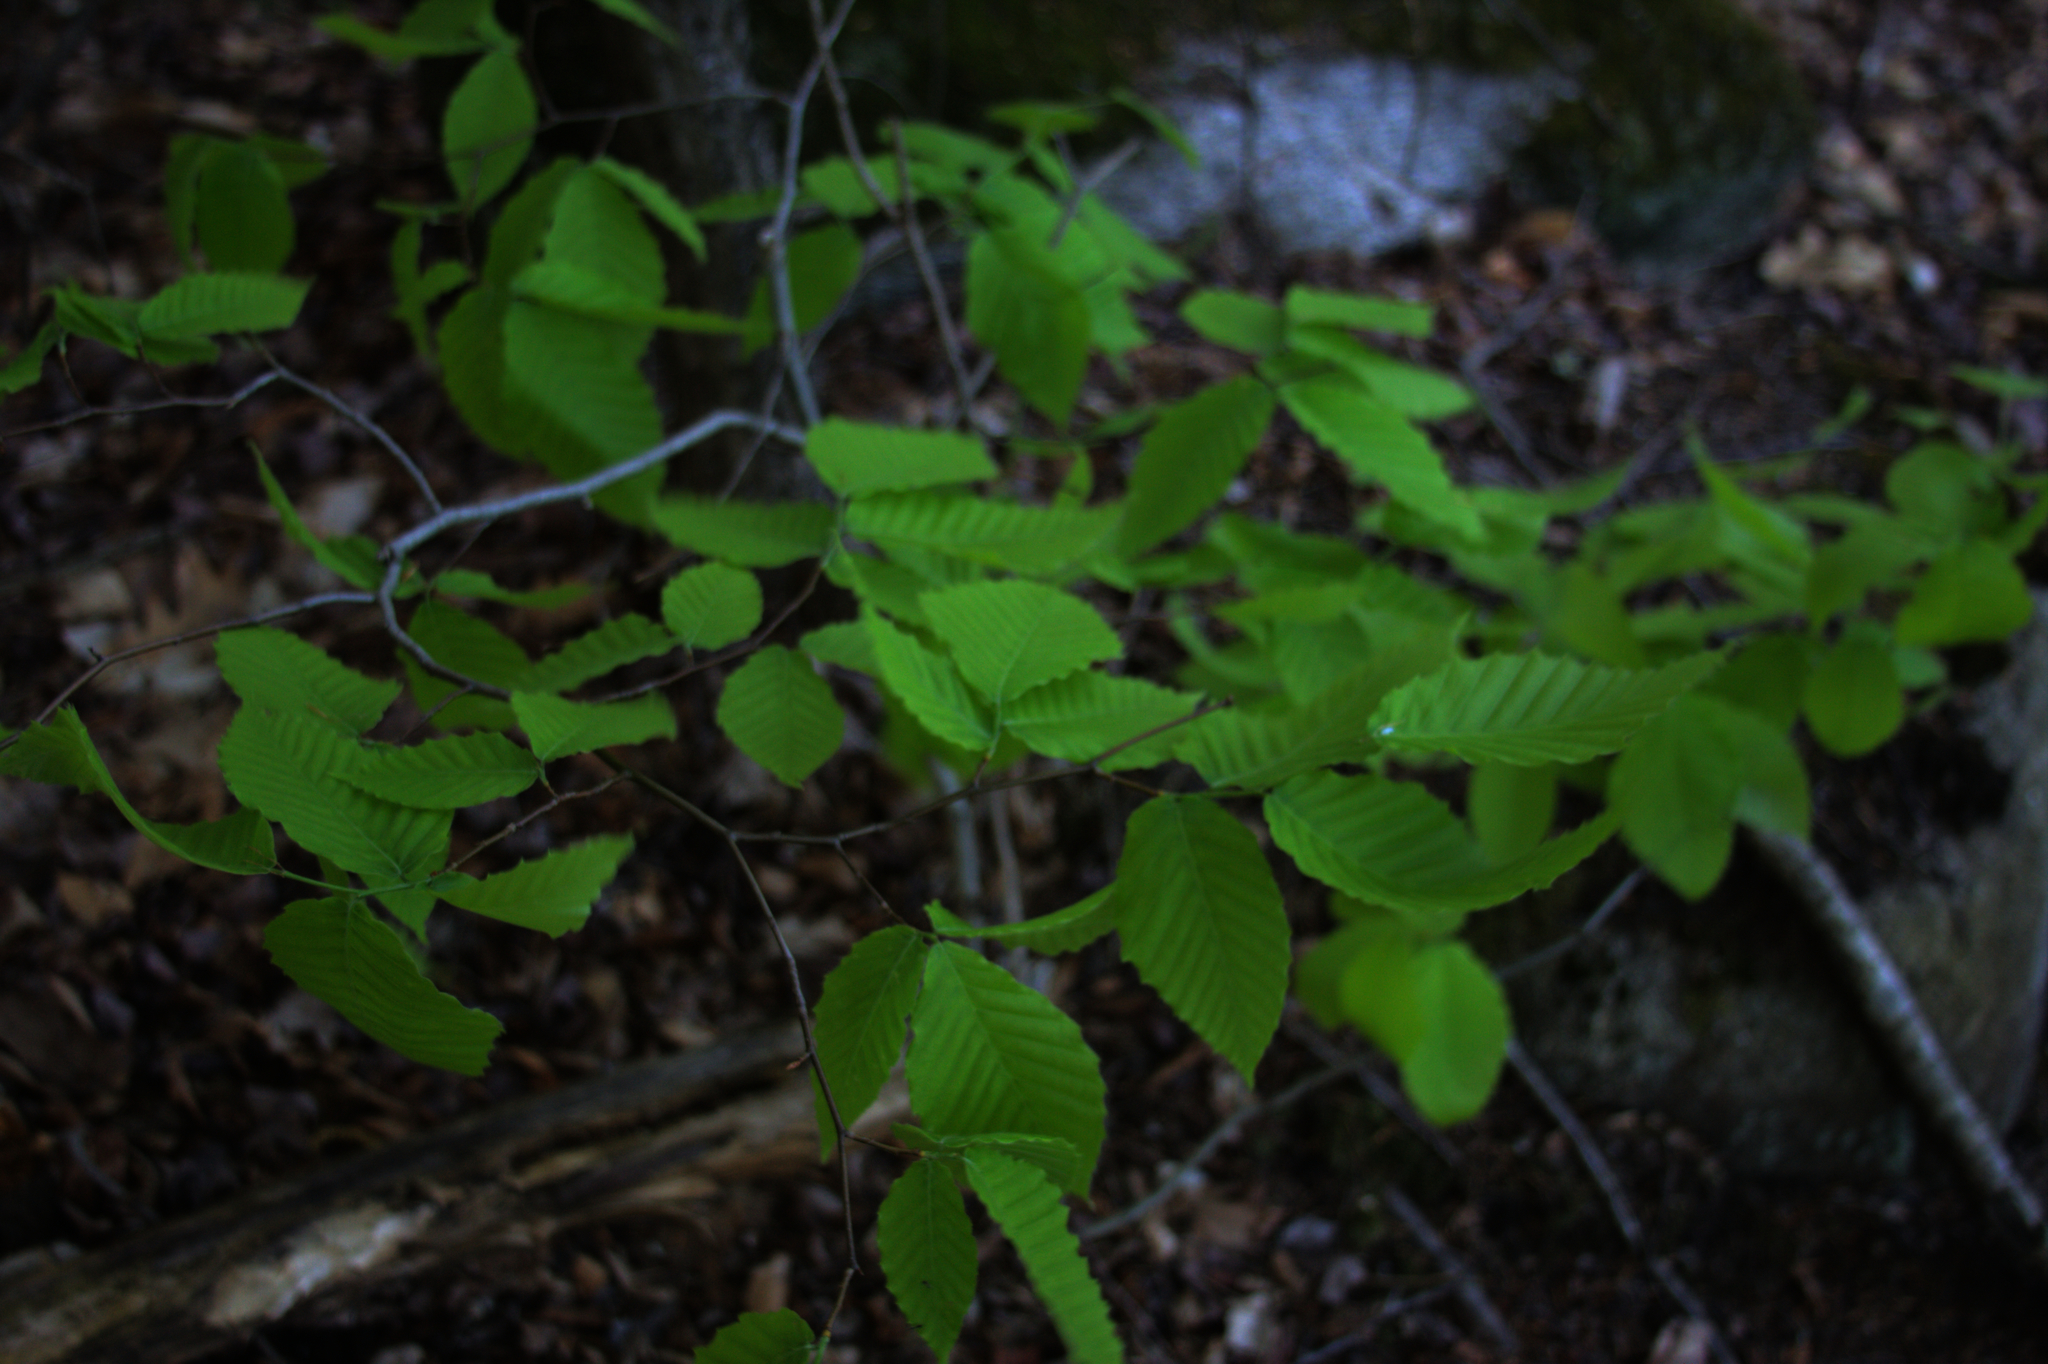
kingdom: Plantae
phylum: Tracheophyta
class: Magnoliopsida
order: Fagales
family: Fagaceae
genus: Fagus
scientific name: Fagus grandifolia
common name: American beech
